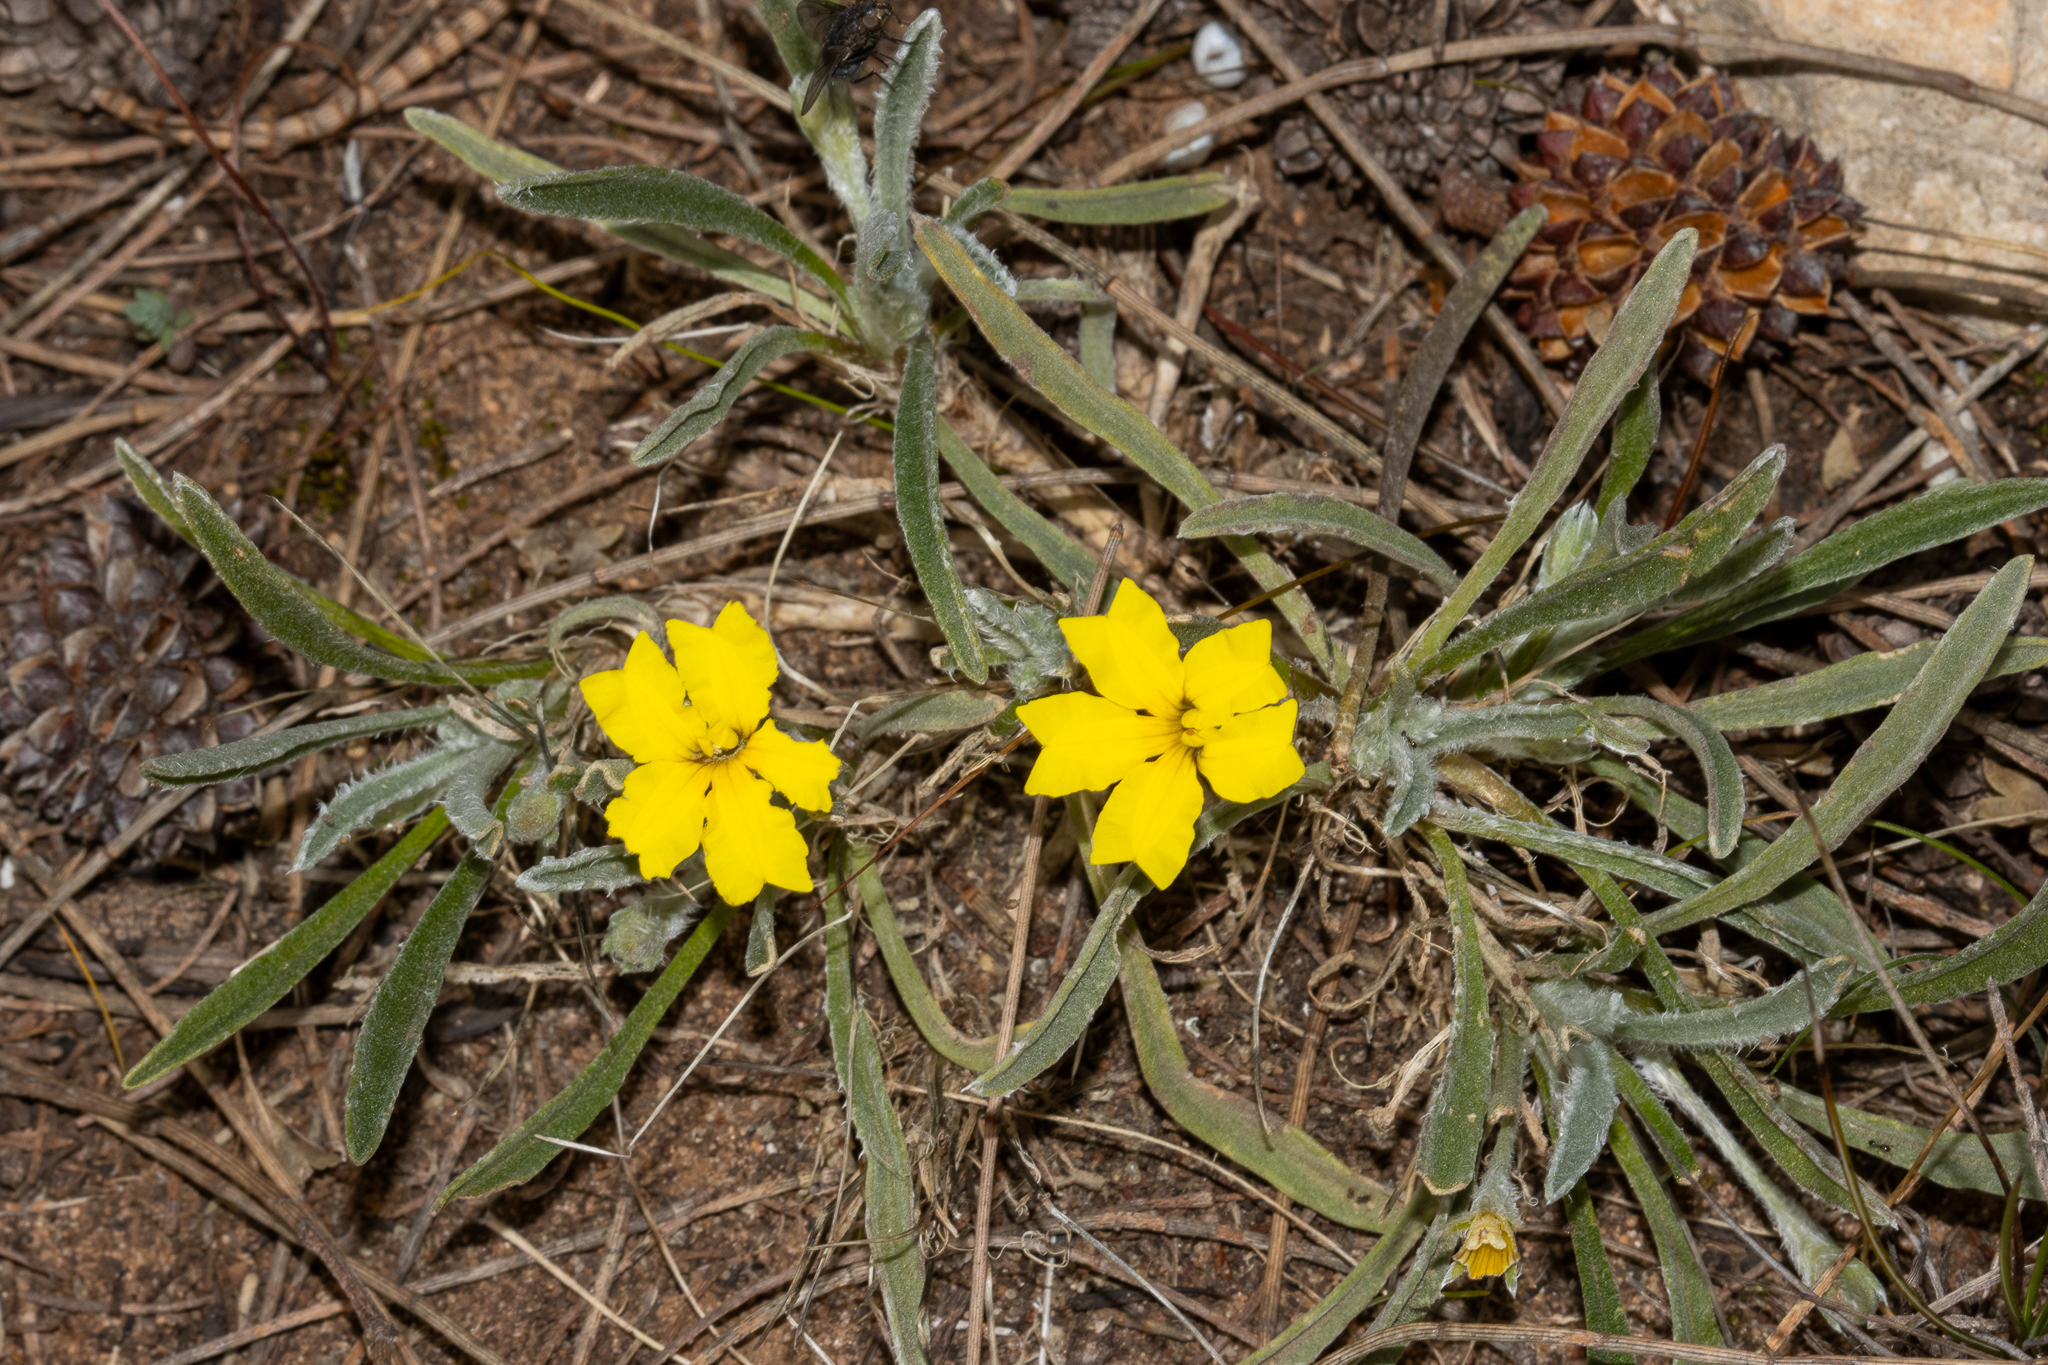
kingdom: Plantae
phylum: Tracheophyta
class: Magnoliopsida
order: Asterales
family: Goodeniaceae
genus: Goodenia
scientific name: Goodenia willisiana
